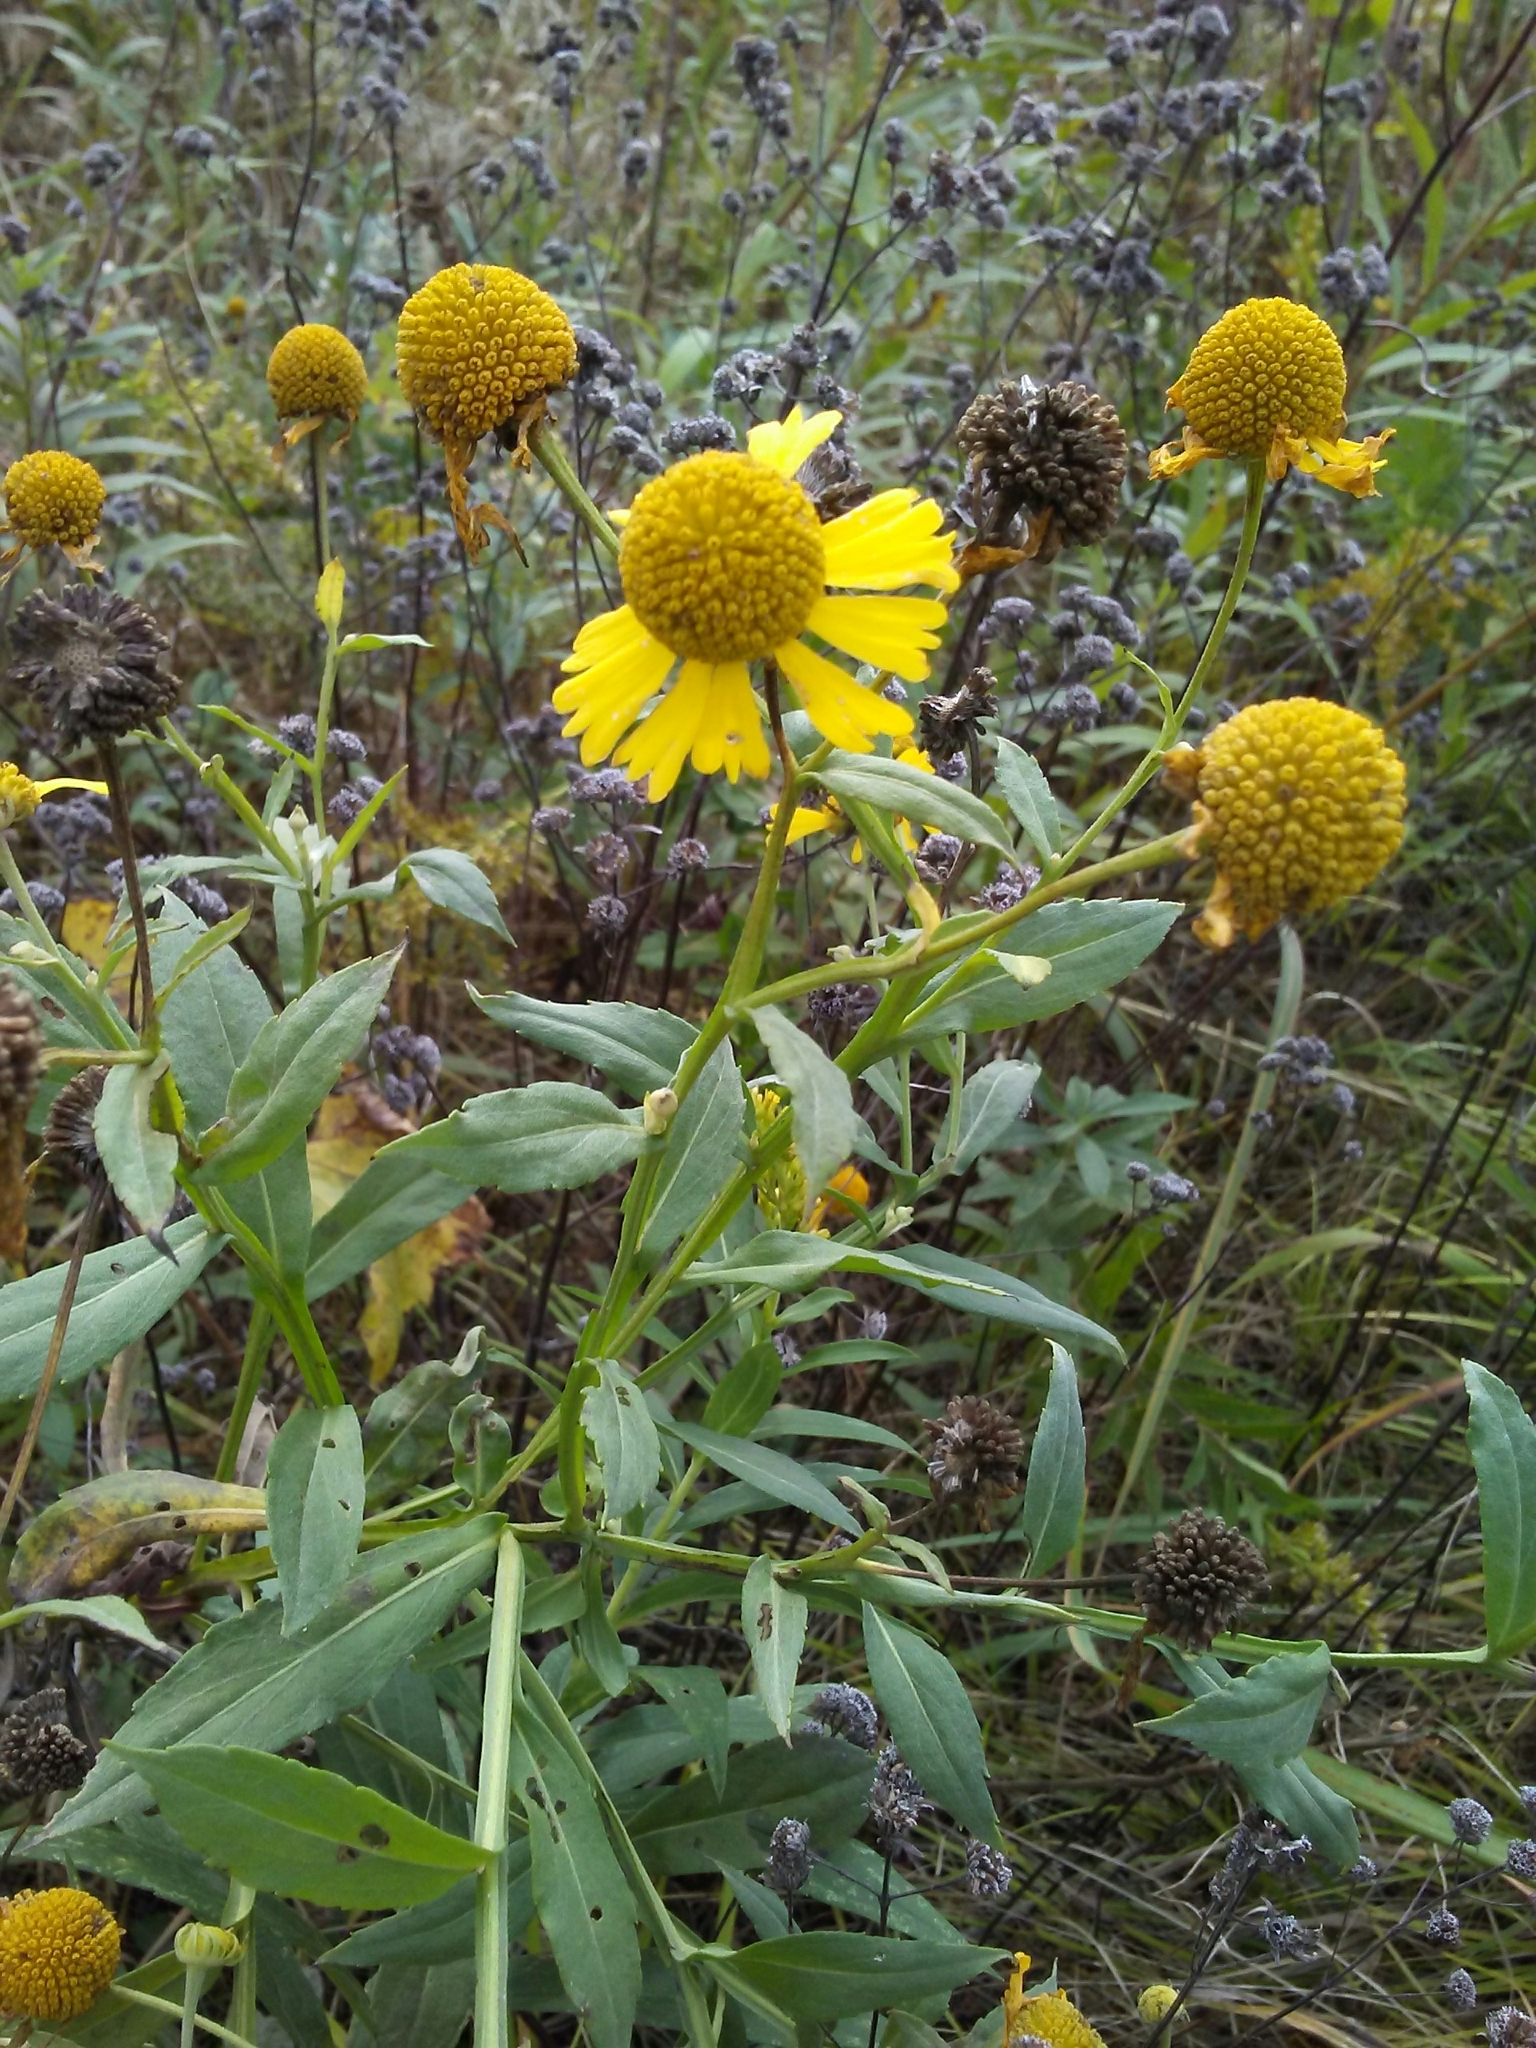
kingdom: Plantae
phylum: Tracheophyta
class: Magnoliopsida
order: Asterales
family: Asteraceae
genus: Helenium
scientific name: Helenium autumnale
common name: Sneezeweed
